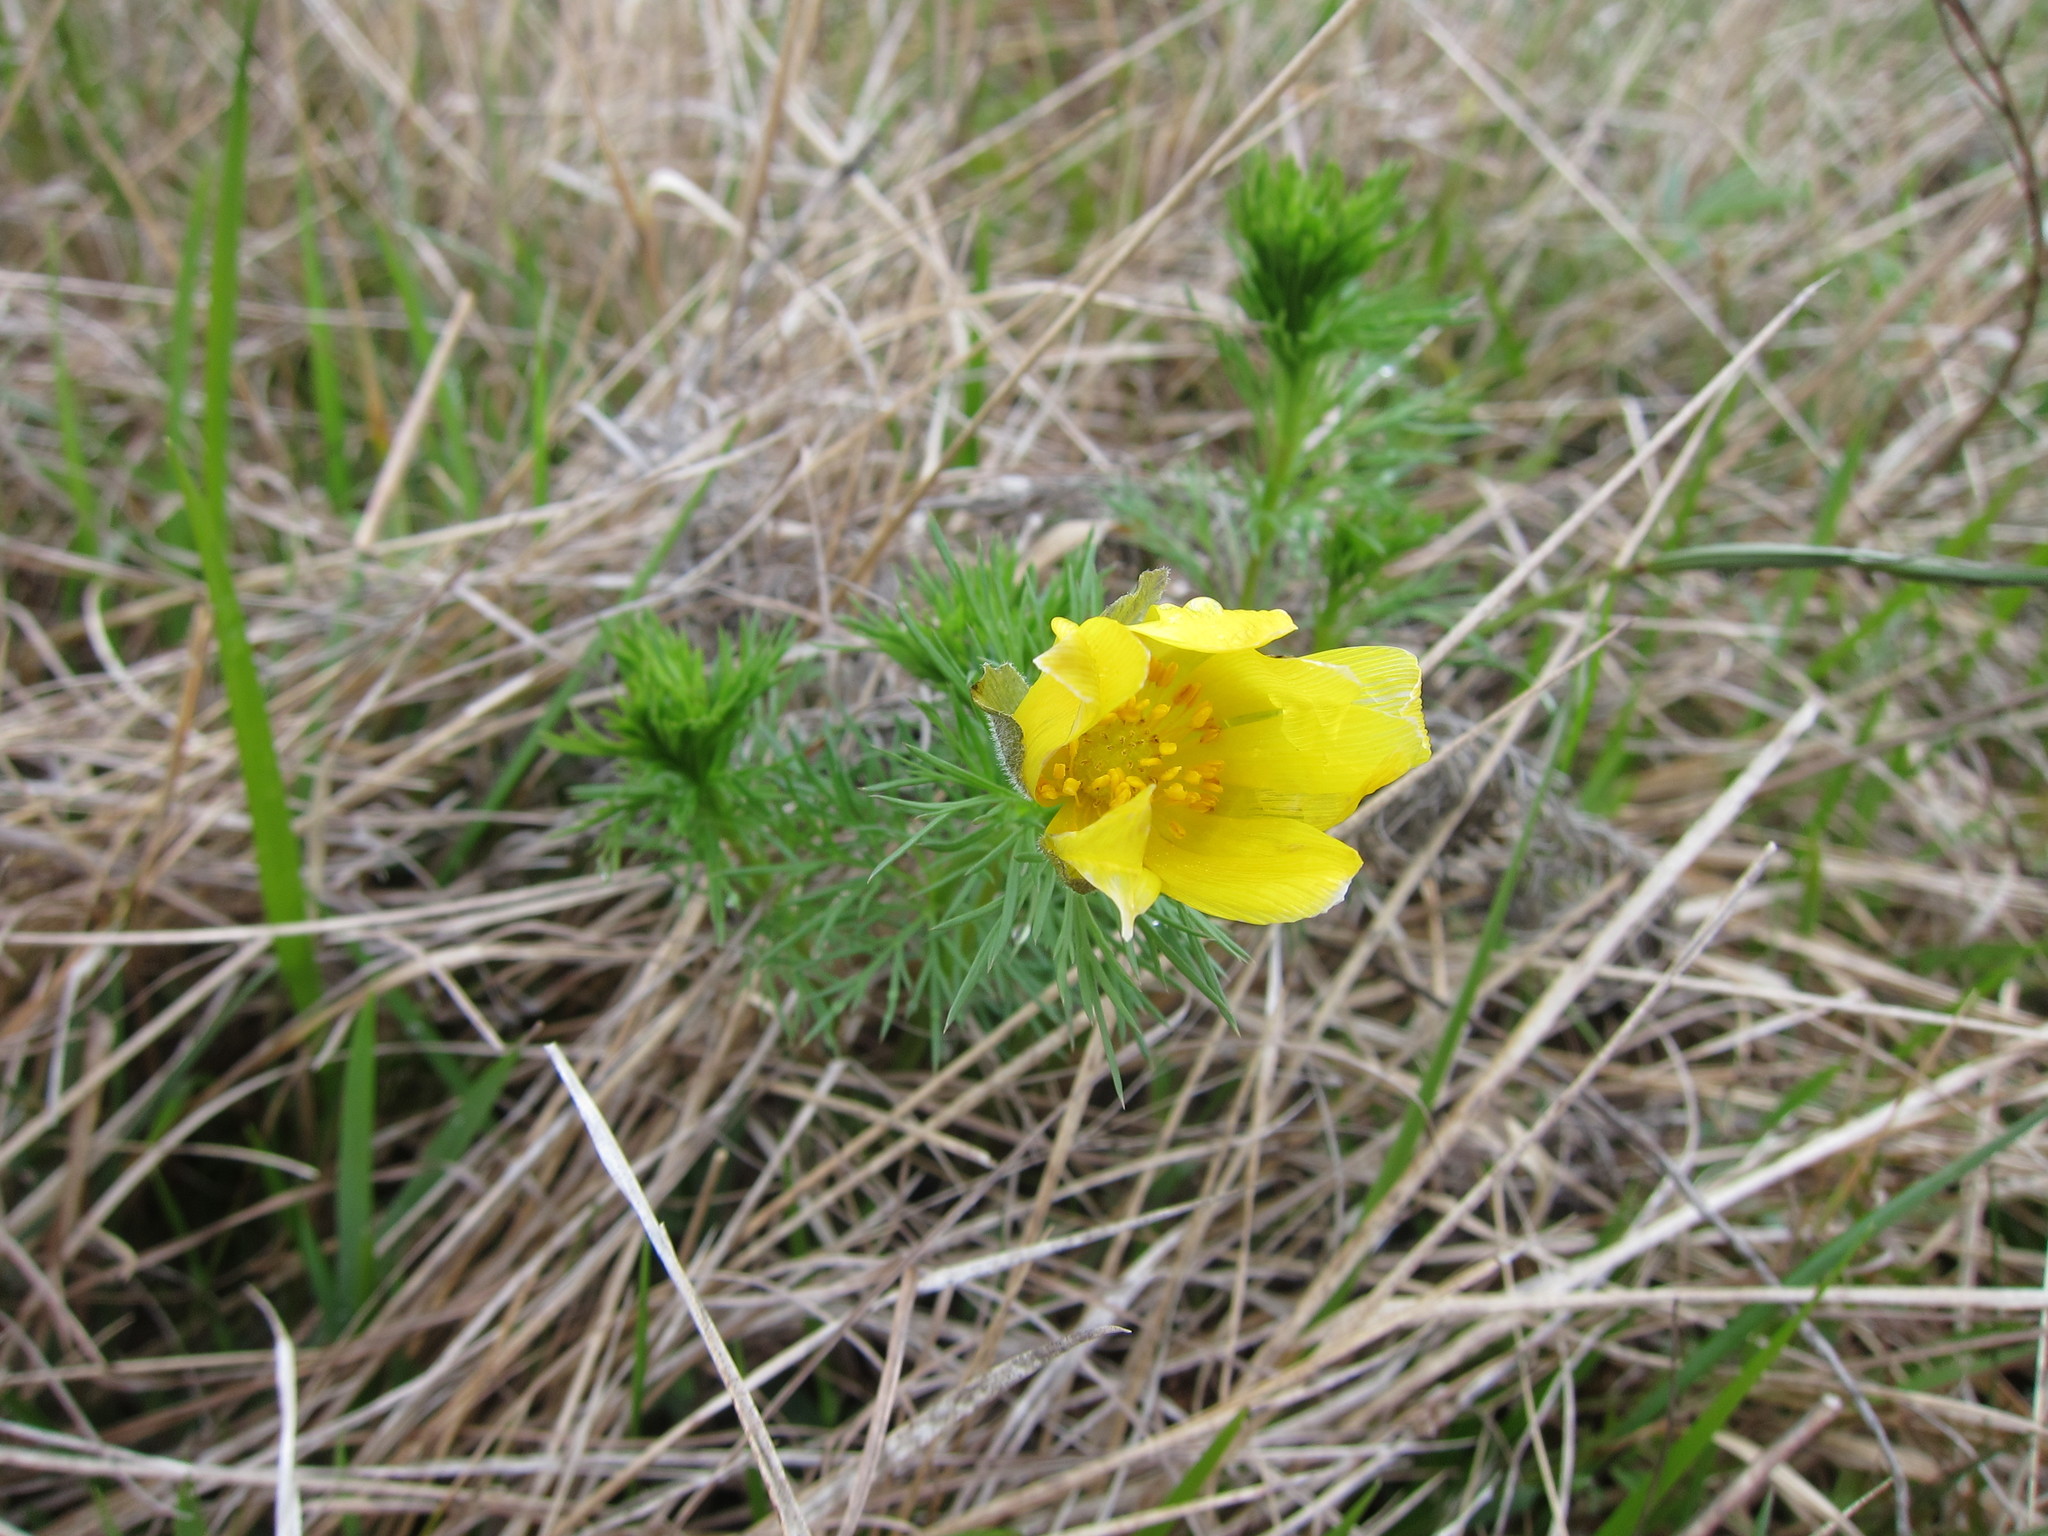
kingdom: Plantae
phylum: Tracheophyta
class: Magnoliopsida
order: Ranunculales
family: Ranunculaceae
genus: Adonis
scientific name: Adonis vernalis
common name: Yellow pheasants-eye
